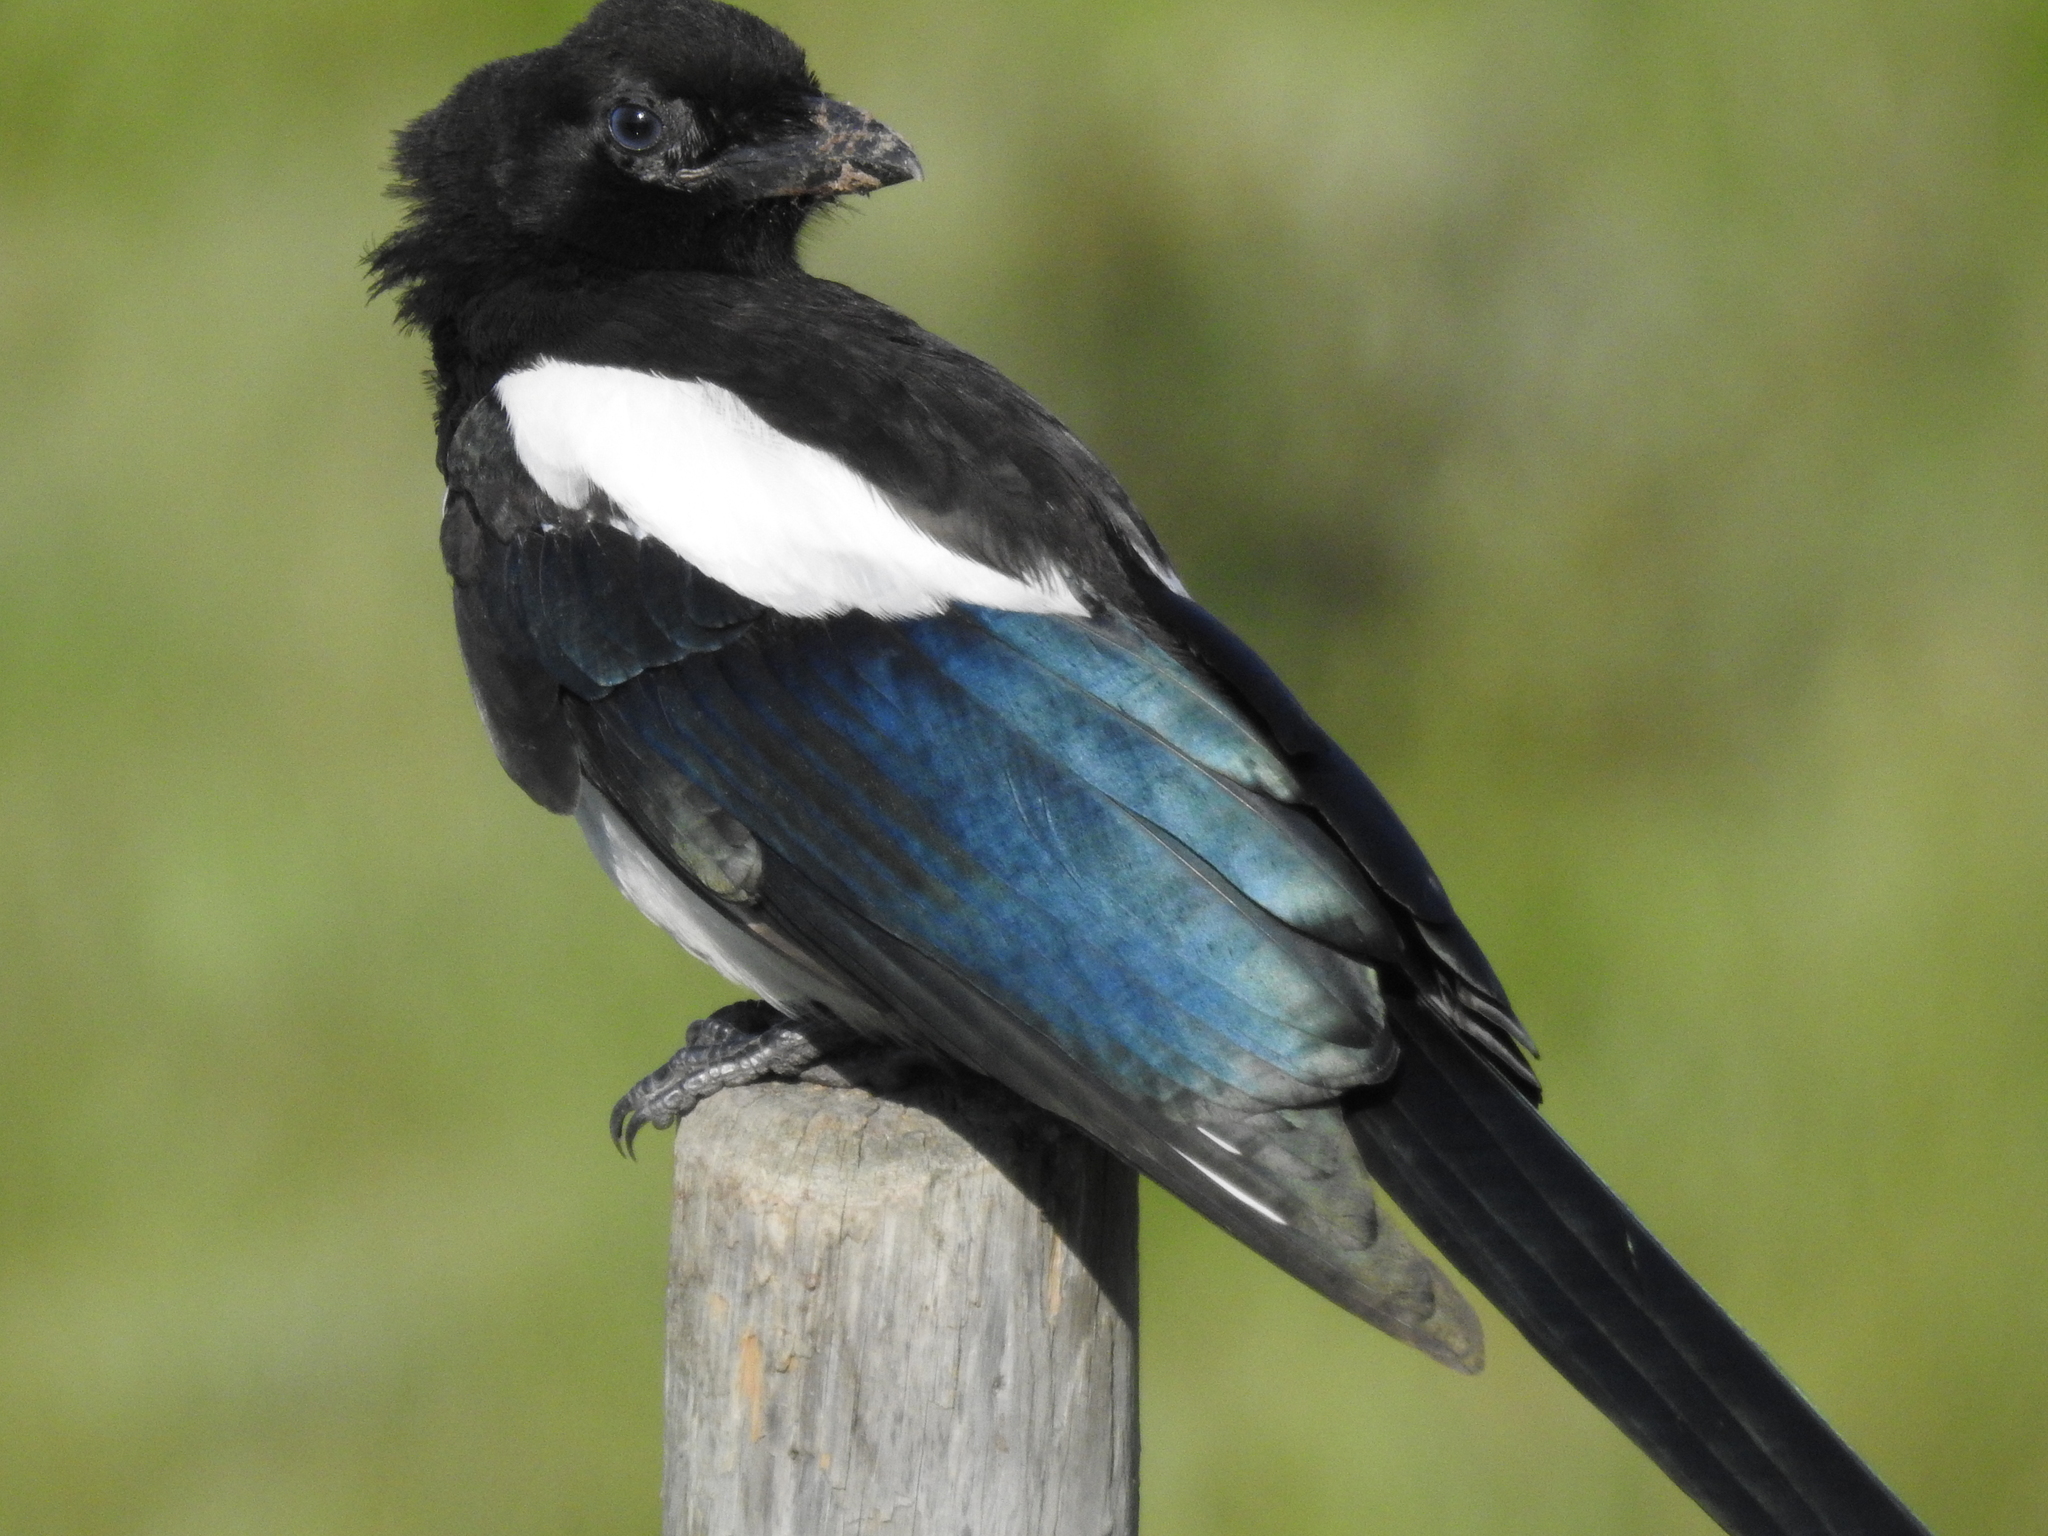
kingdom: Animalia
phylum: Chordata
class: Aves
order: Passeriformes
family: Corvidae
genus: Pica
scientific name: Pica hudsonia
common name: Black-billed magpie
